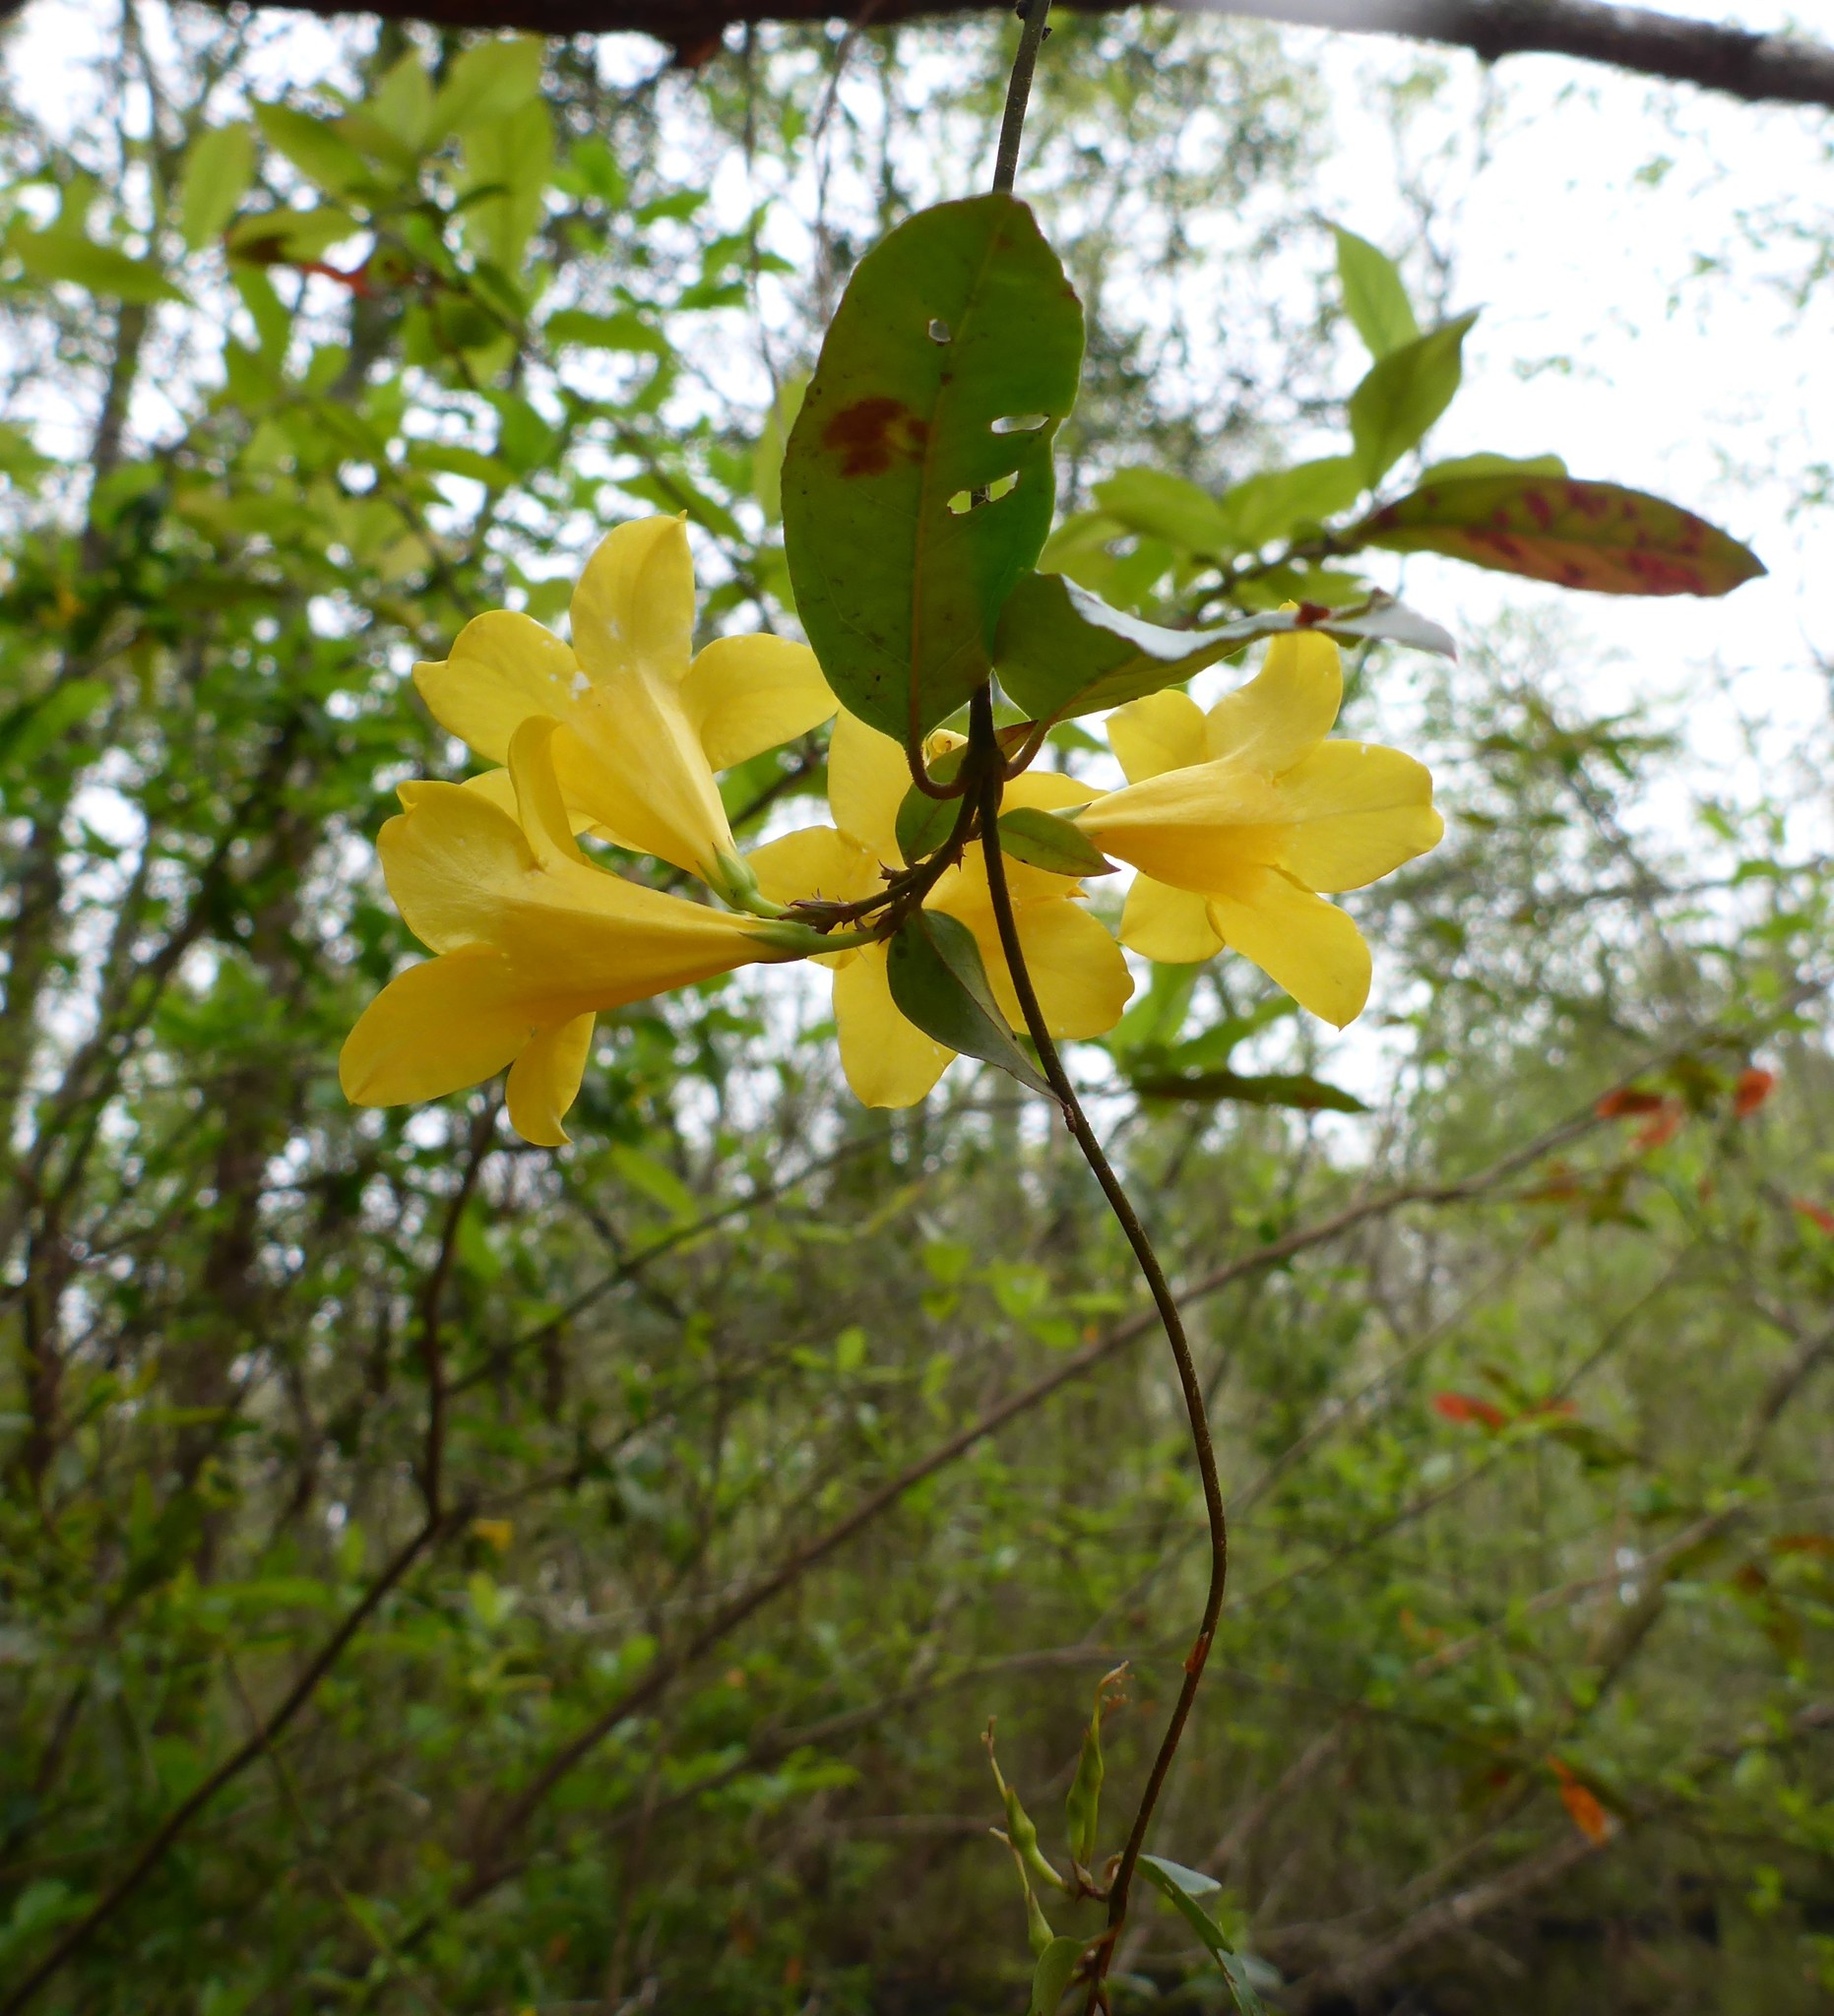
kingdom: Plantae
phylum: Tracheophyta
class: Magnoliopsida
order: Gentianales
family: Gelsemiaceae
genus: Gelsemium
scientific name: Gelsemium rankinii
